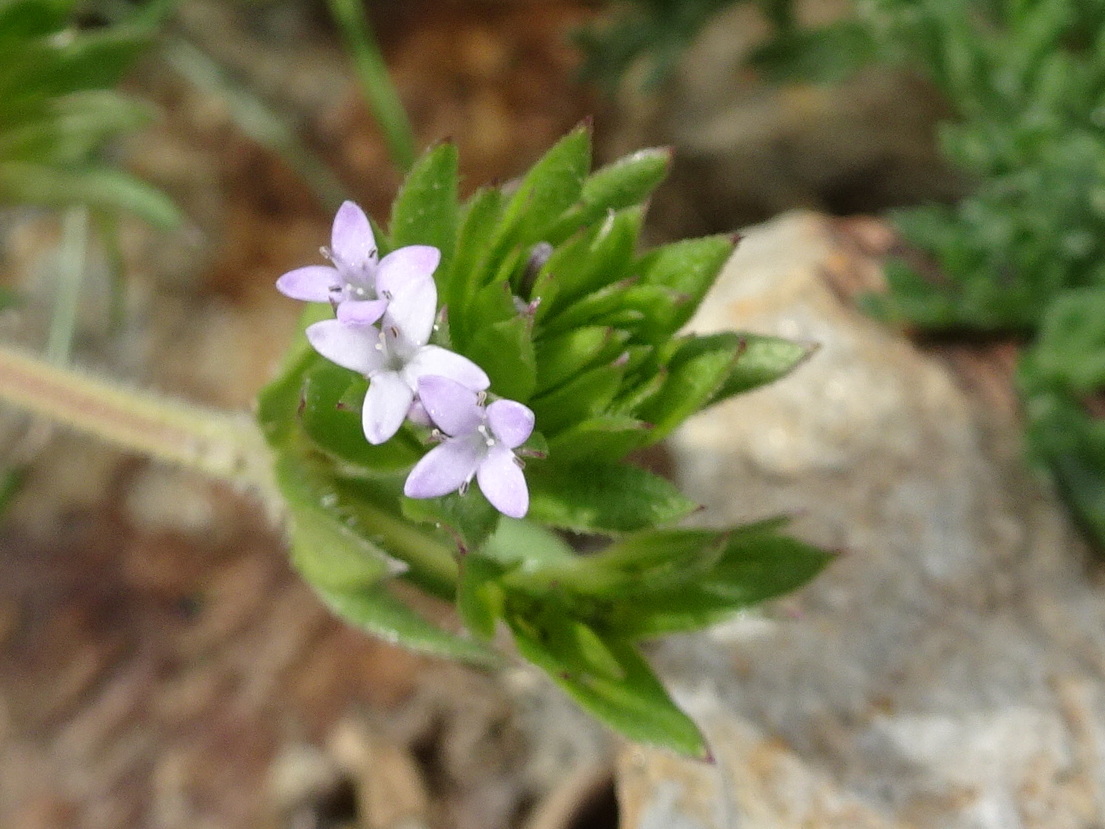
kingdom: Plantae
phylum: Tracheophyta
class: Magnoliopsida
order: Gentianales
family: Rubiaceae
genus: Sherardia
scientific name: Sherardia arvensis
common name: Field madder
